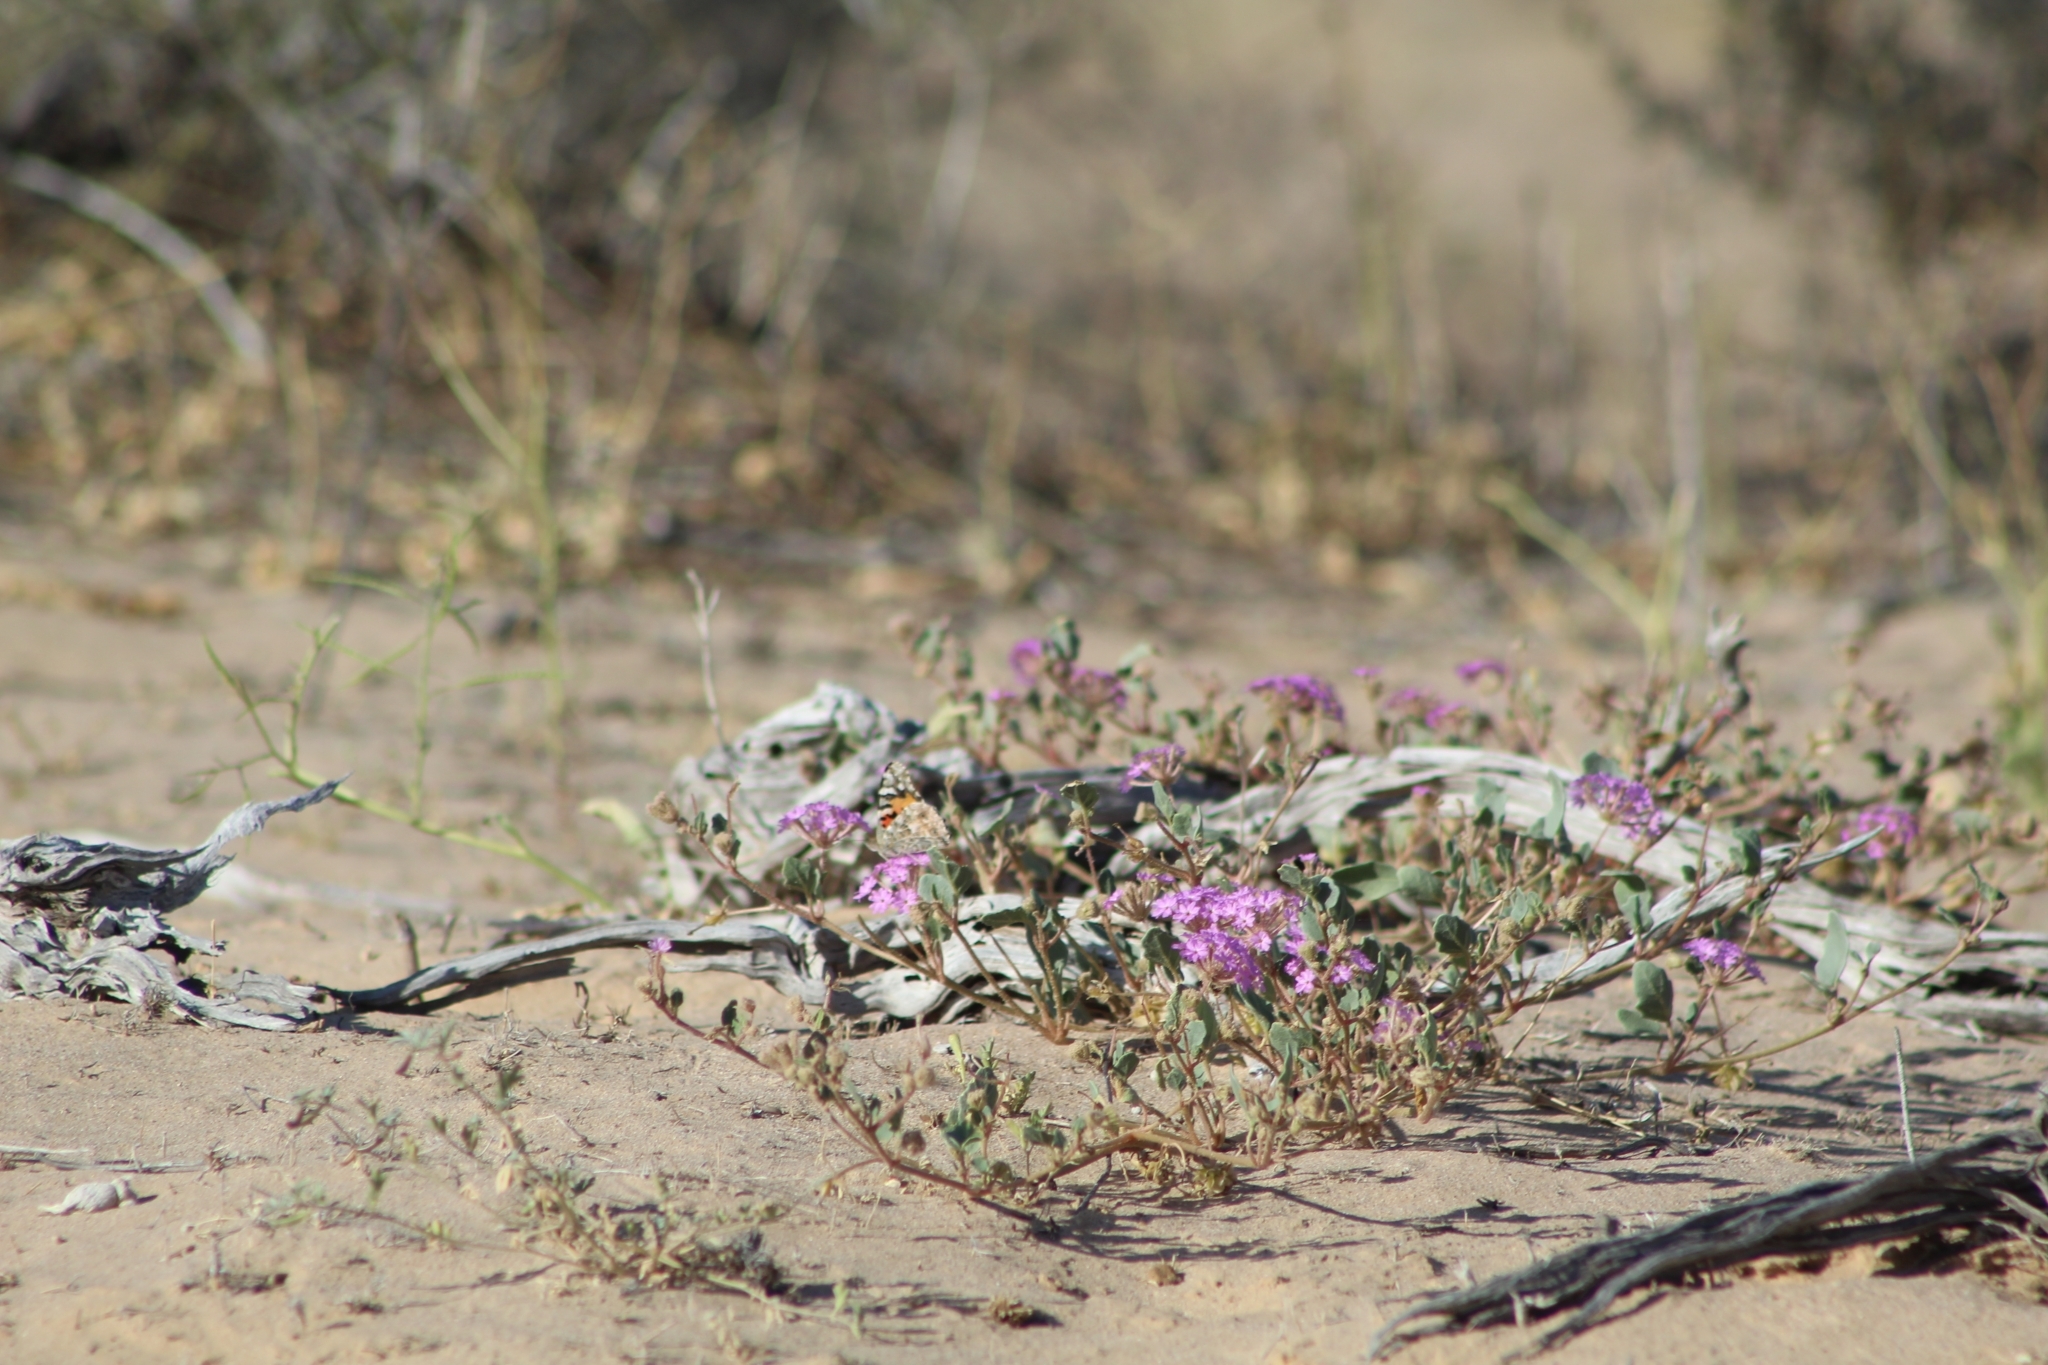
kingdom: Animalia
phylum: Arthropoda
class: Insecta
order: Lepidoptera
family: Nymphalidae
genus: Vanessa
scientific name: Vanessa cardui
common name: Painted lady
